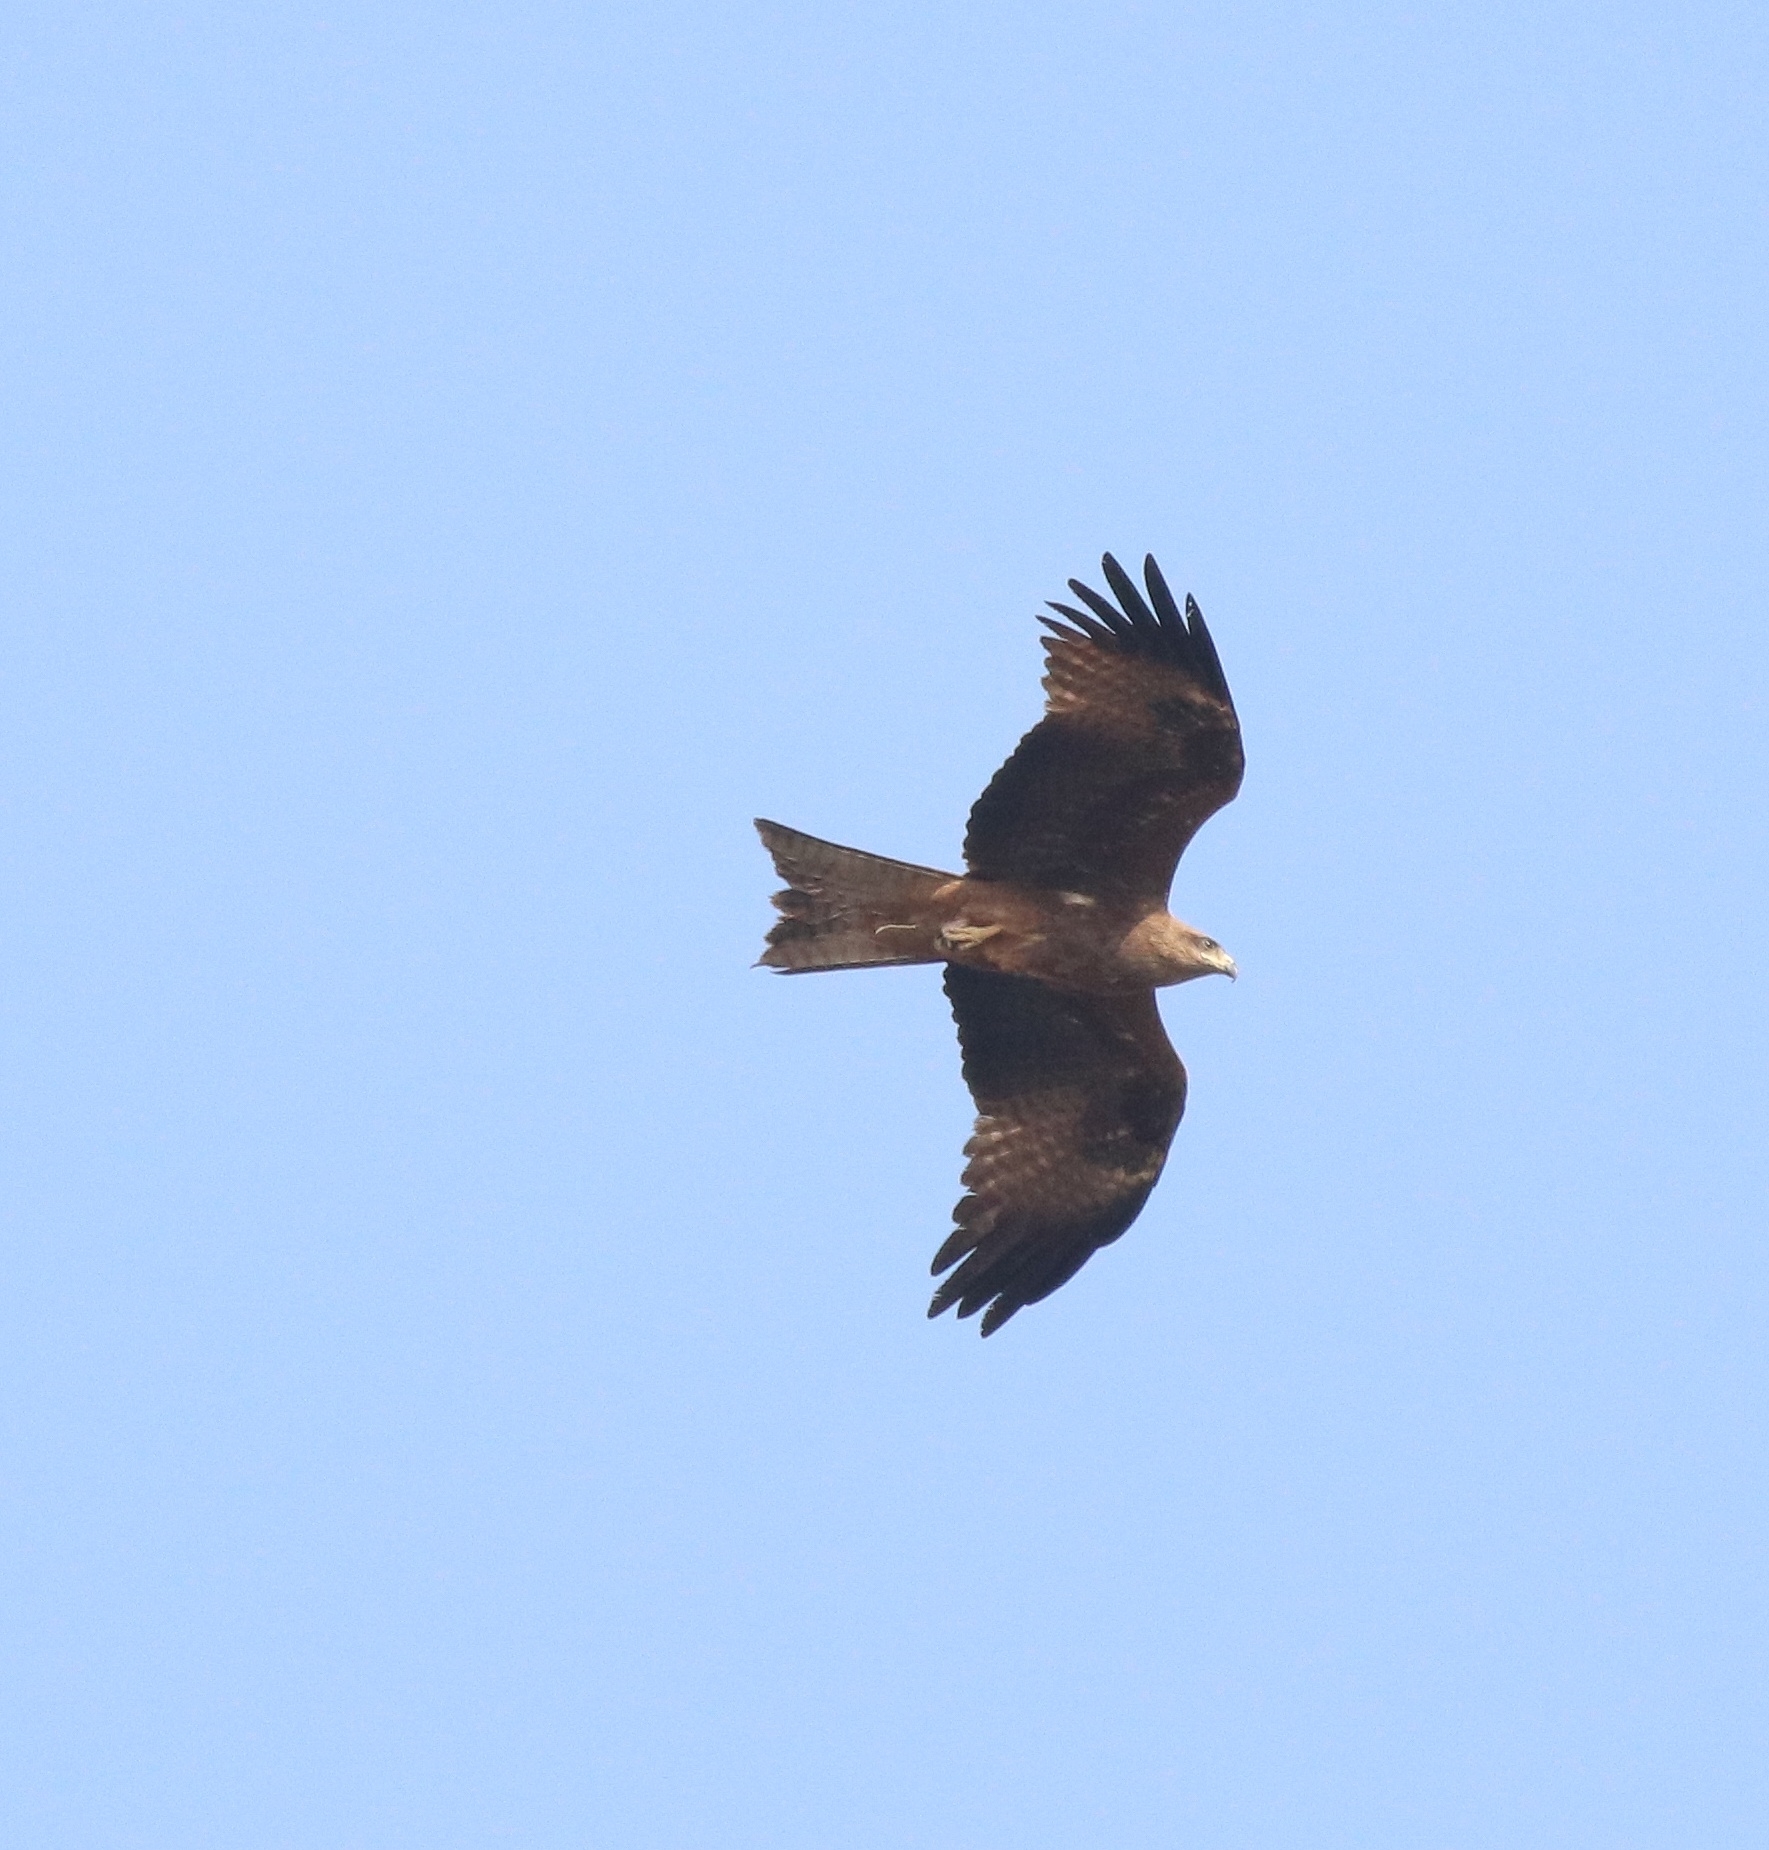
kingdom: Animalia
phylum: Chordata
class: Aves
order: Accipitriformes
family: Accipitridae
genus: Milvus
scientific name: Milvus migrans
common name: Black kite
